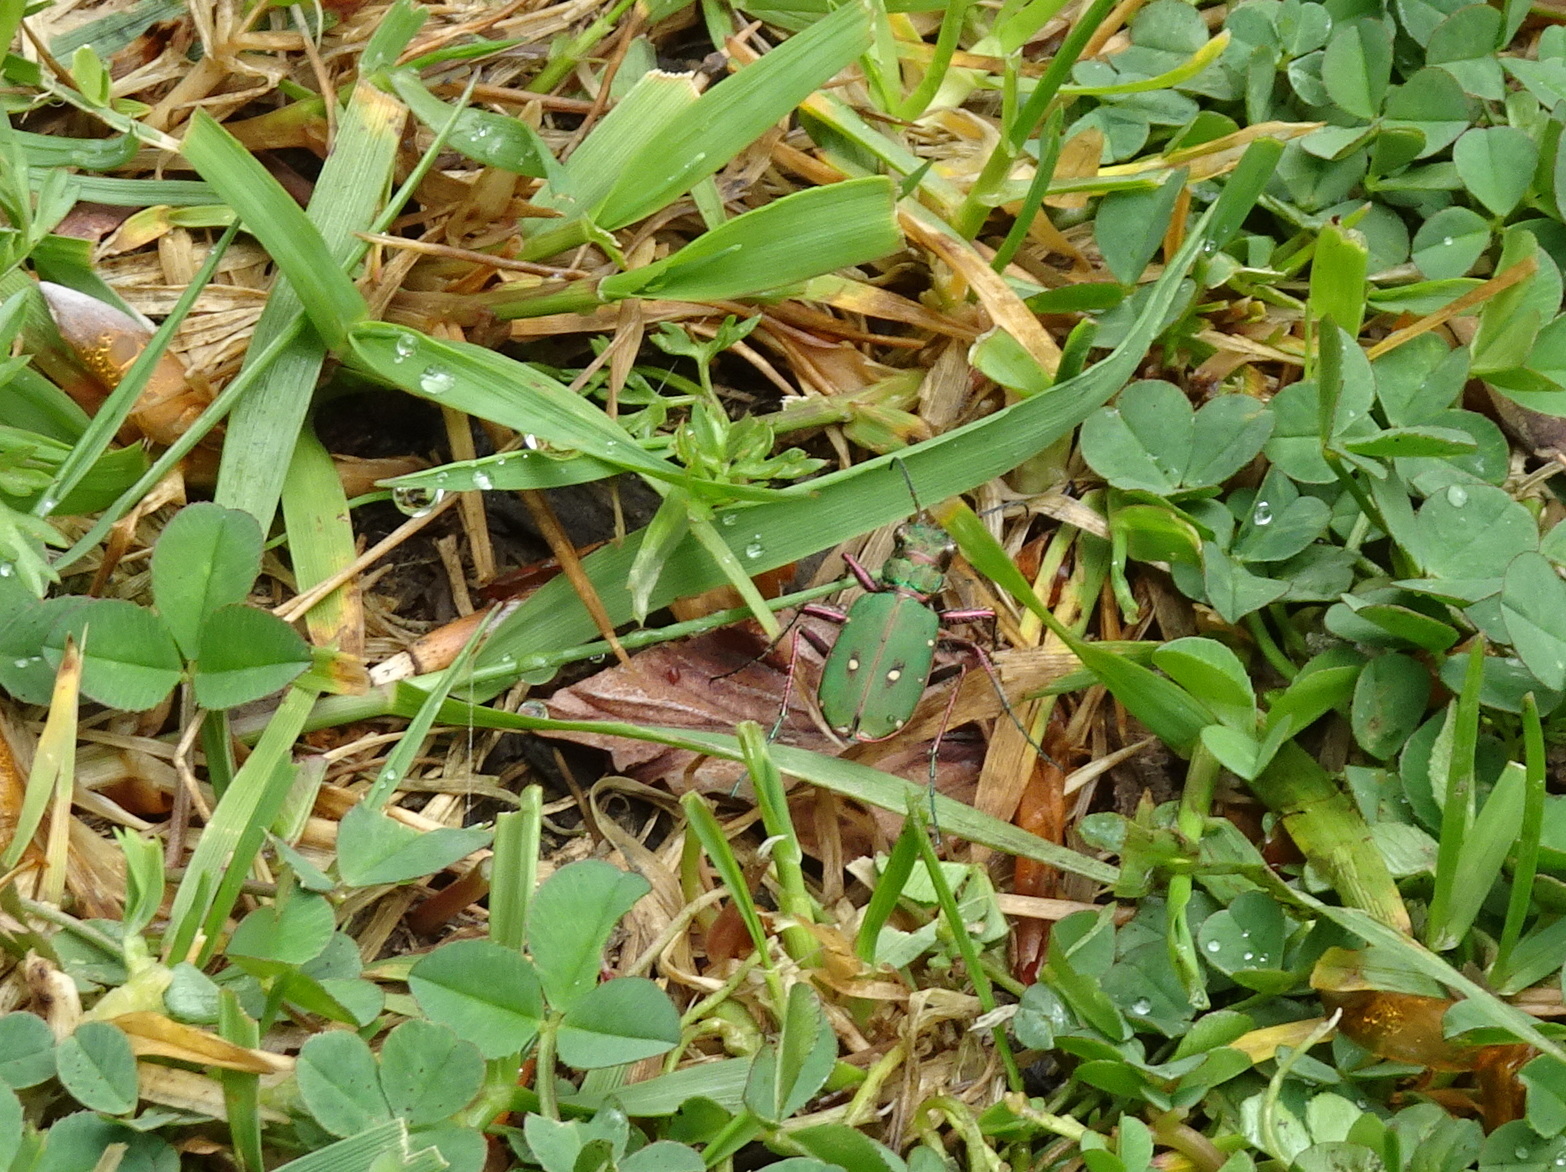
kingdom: Animalia
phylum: Arthropoda
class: Insecta
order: Coleoptera
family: Carabidae
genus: Cicindela
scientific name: Cicindela campestris
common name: Common tiger beetle
